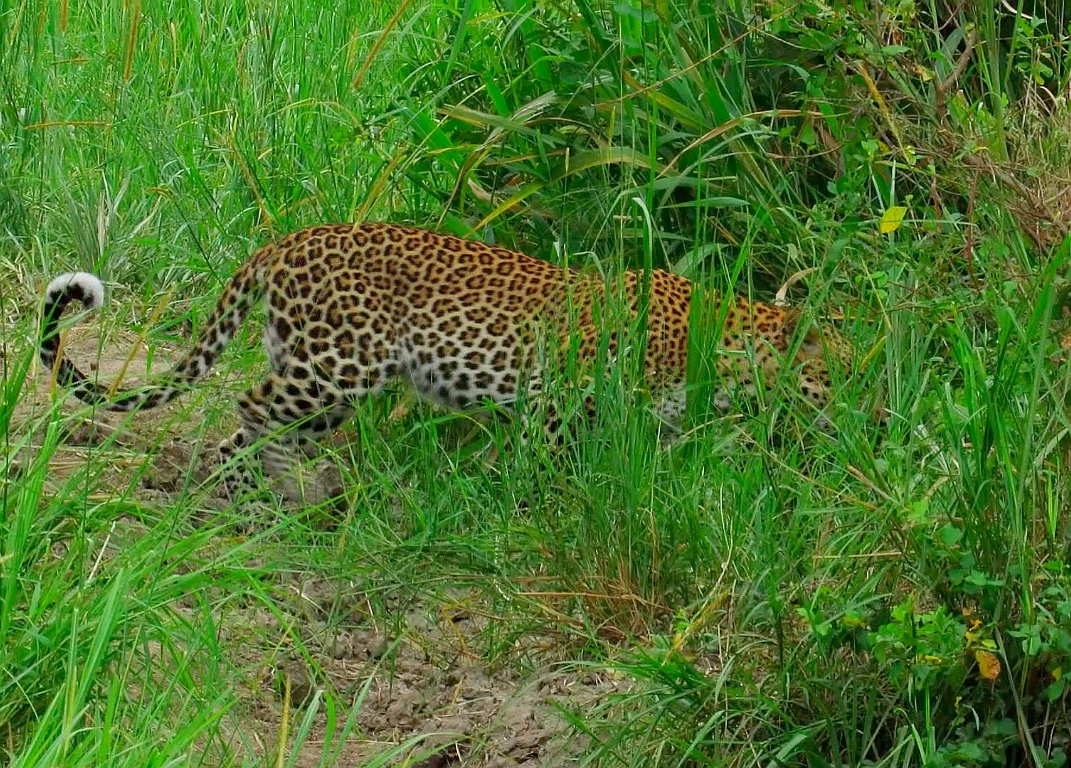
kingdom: Animalia
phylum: Chordata
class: Mammalia
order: Carnivora
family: Felidae
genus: Panthera
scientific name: Panthera pardus
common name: Leopard
